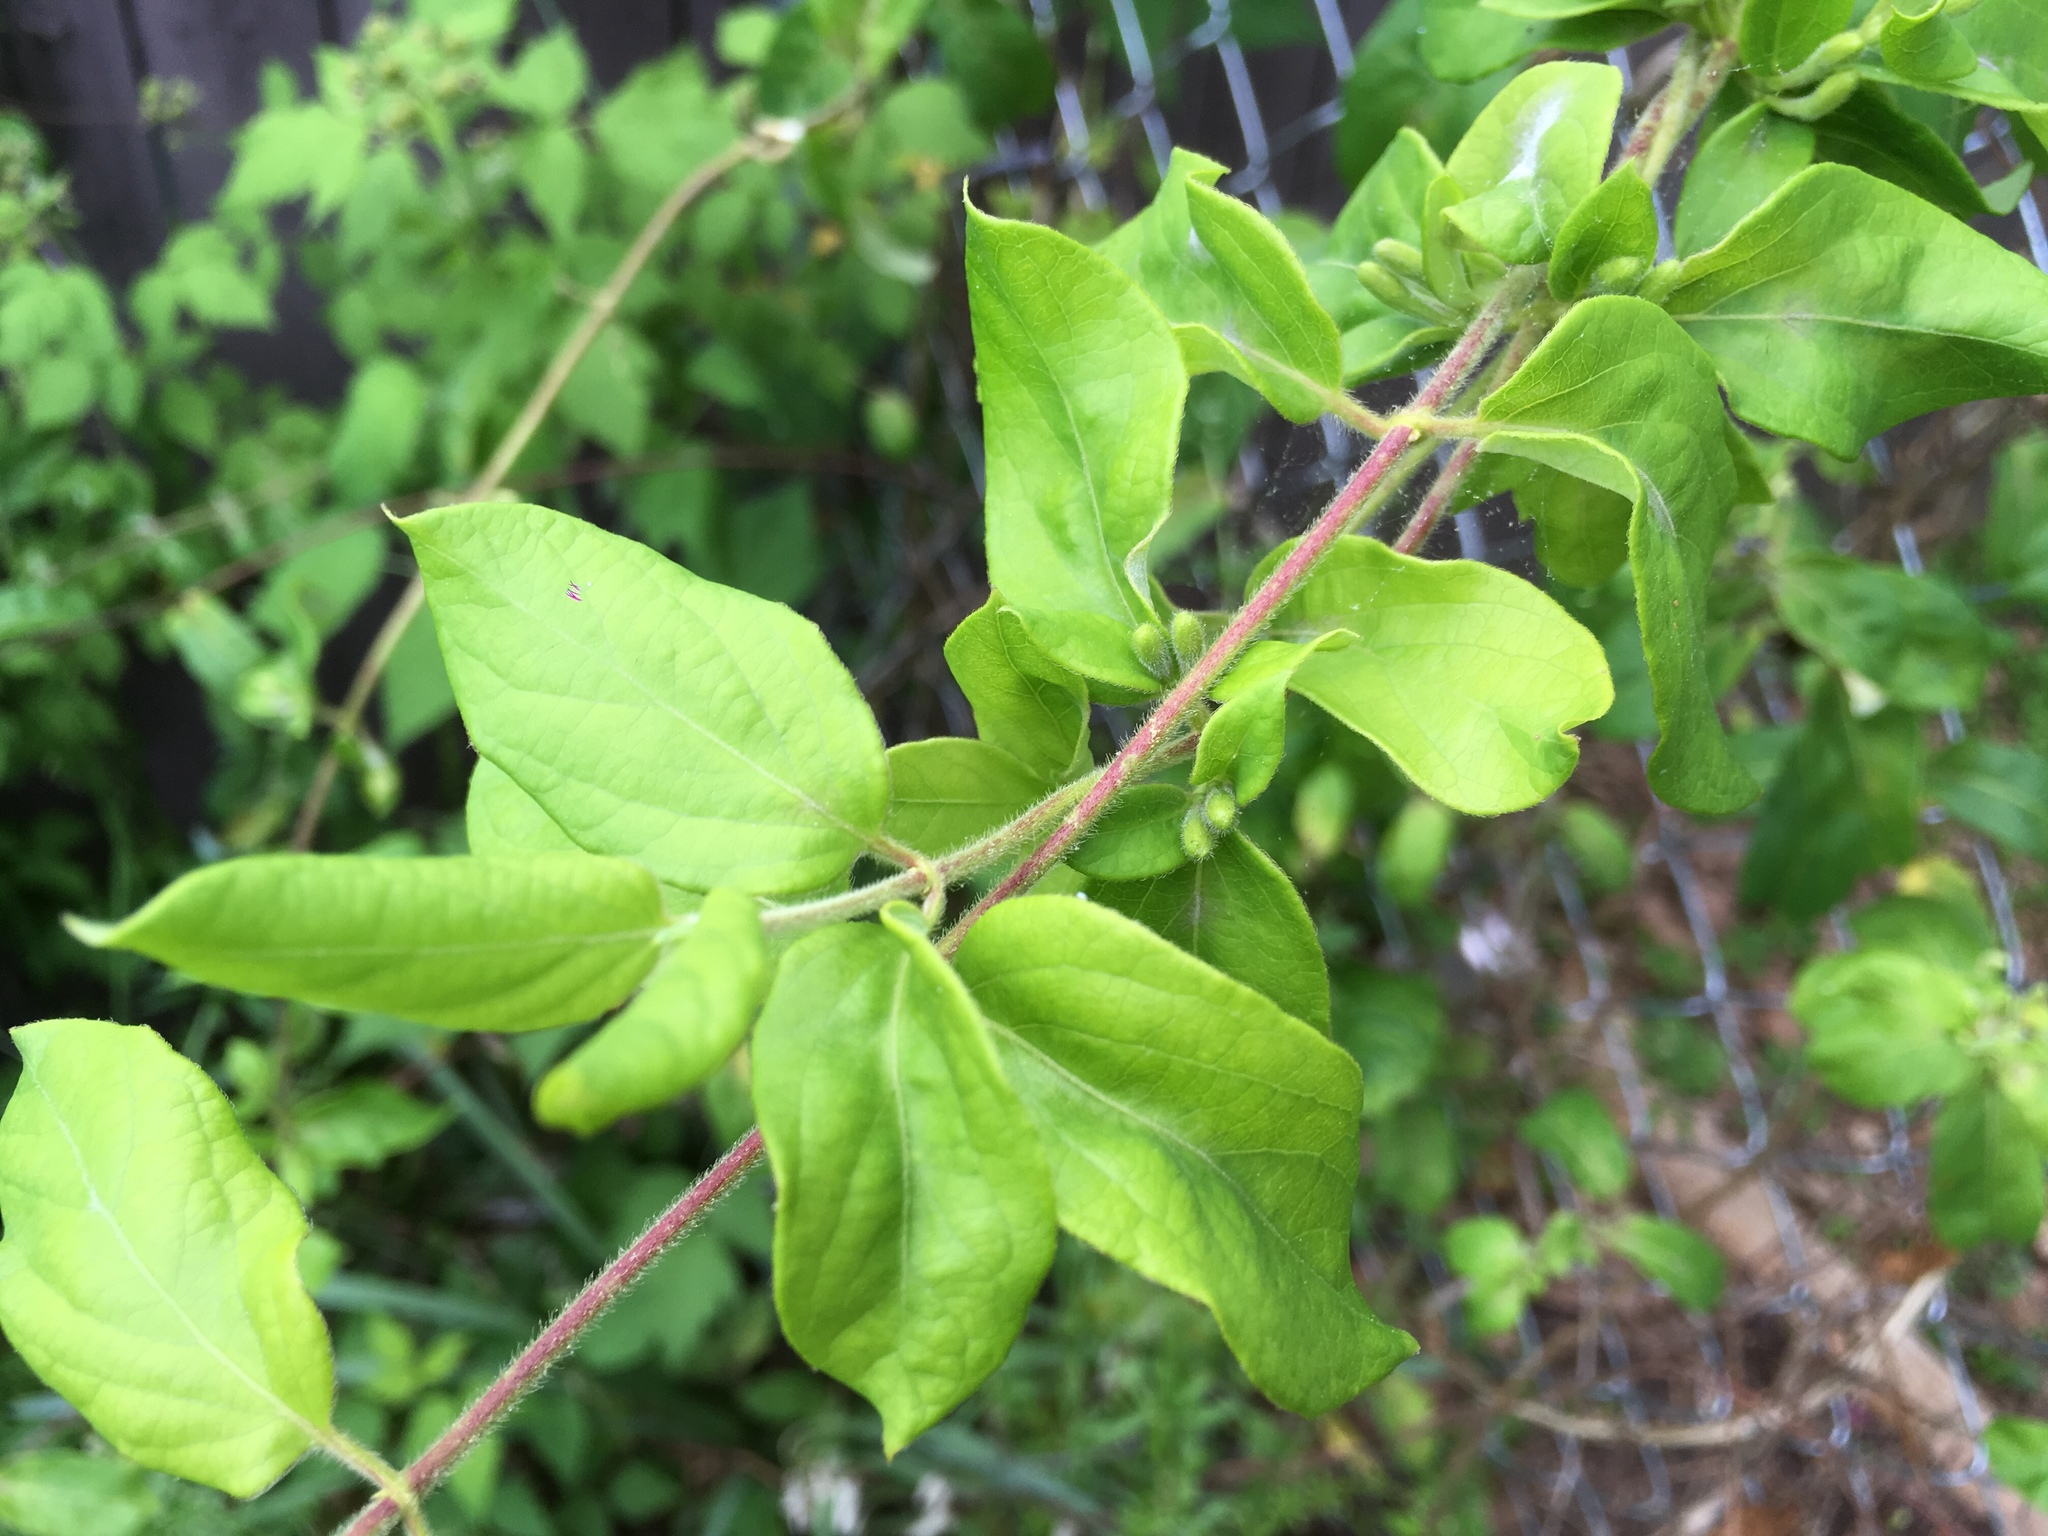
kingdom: Plantae
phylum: Tracheophyta
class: Magnoliopsida
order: Dipsacales
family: Caprifoliaceae
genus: Lonicera
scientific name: Lonicera japonica
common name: Japanese honeysuckle
